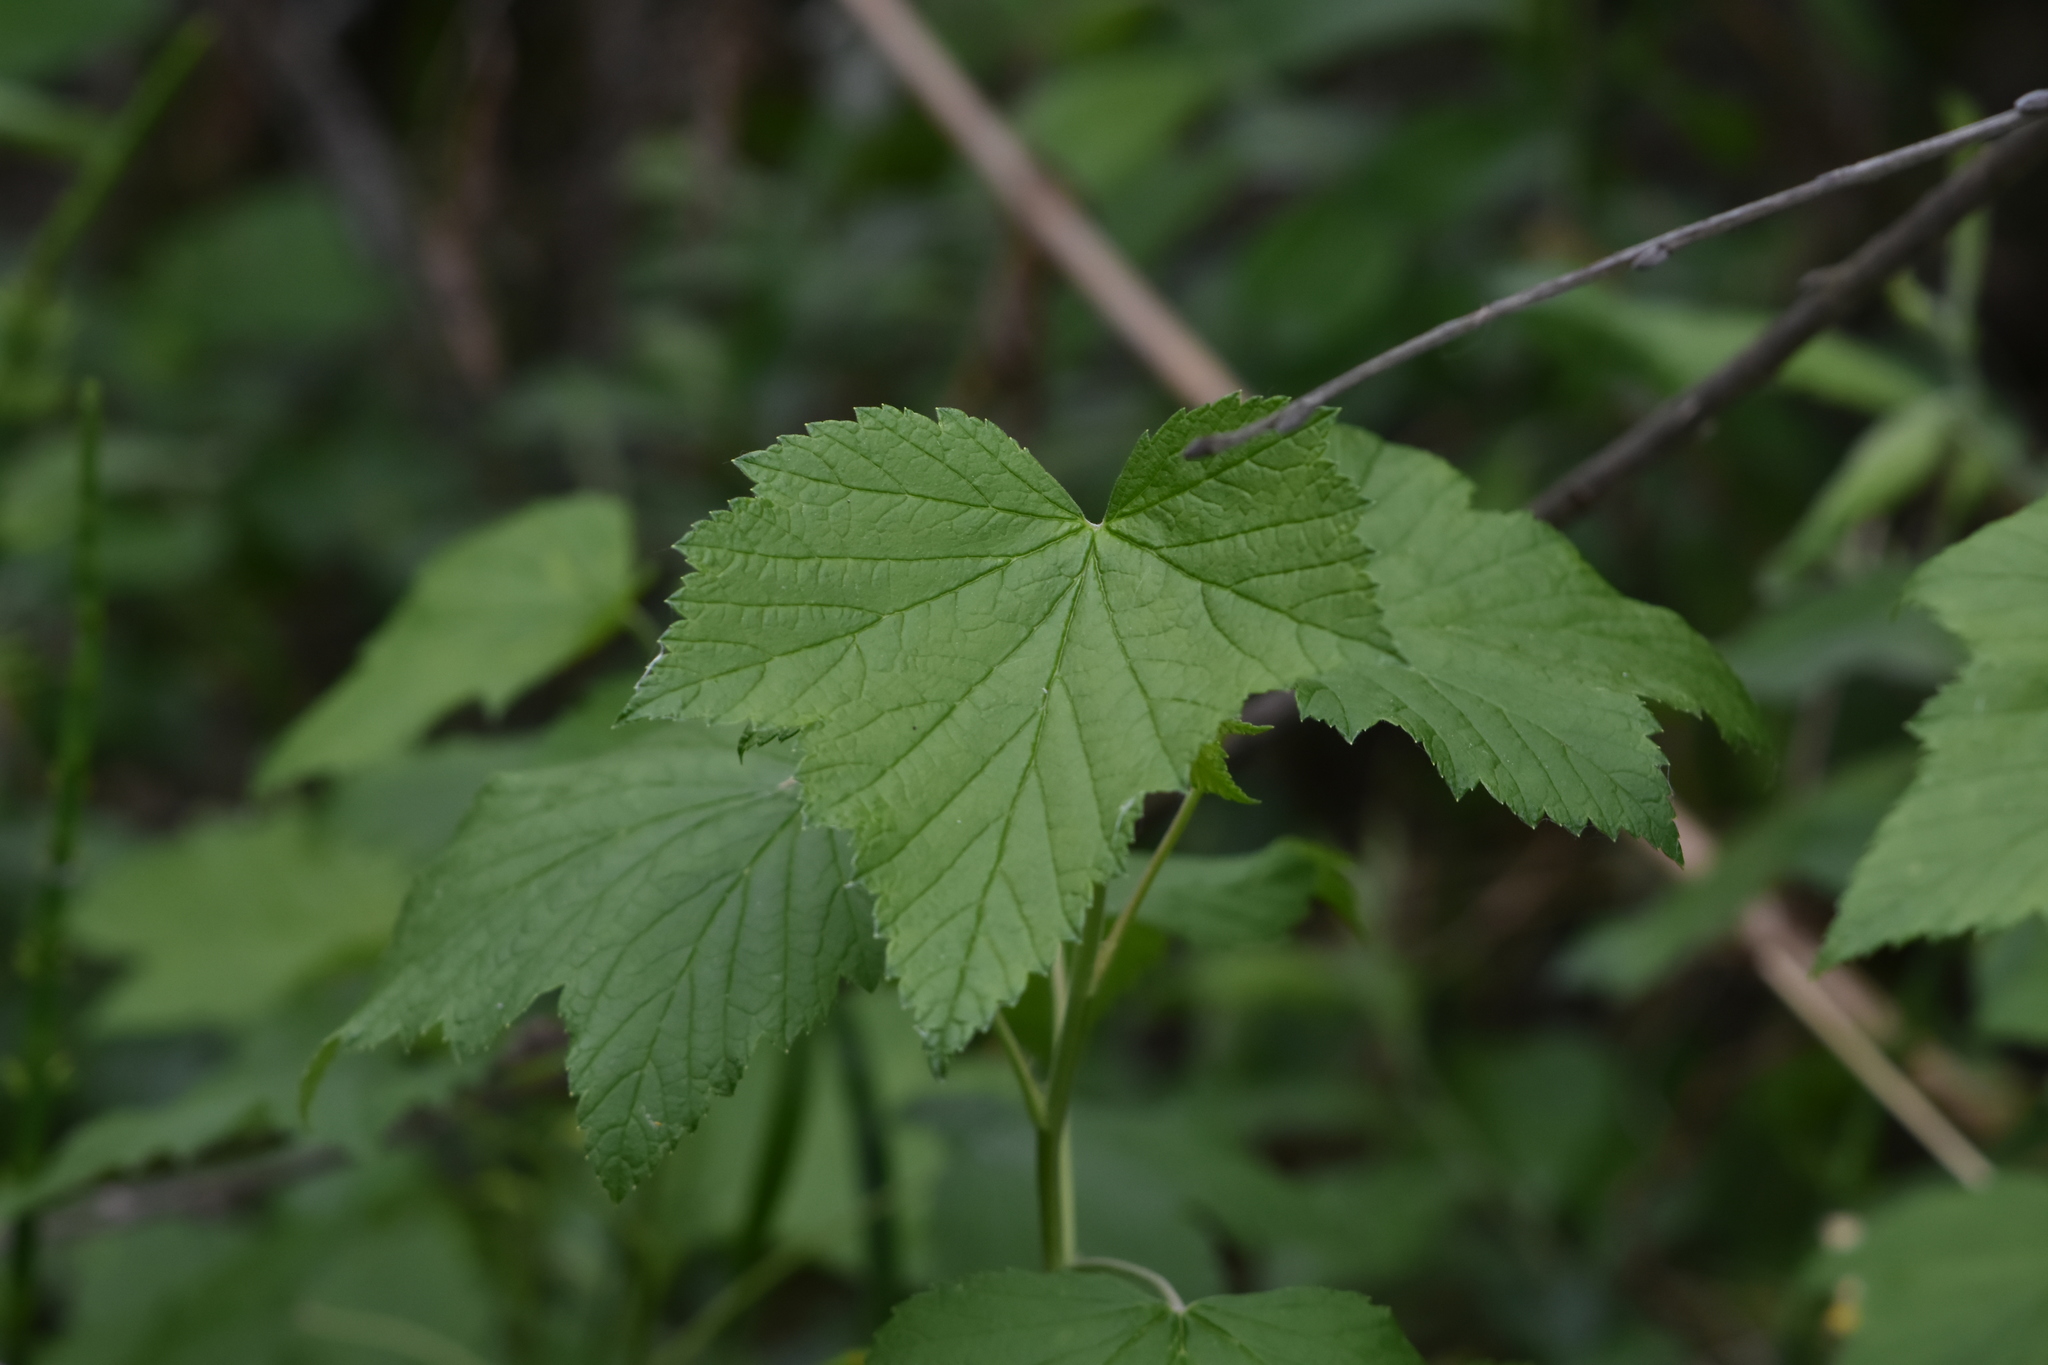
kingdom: Plantae
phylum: Tracheophyta
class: Magnoliopsida
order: Saxifragales
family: Grossulariaceae
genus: Ribes
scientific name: Ribes nigrum
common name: Black currant
